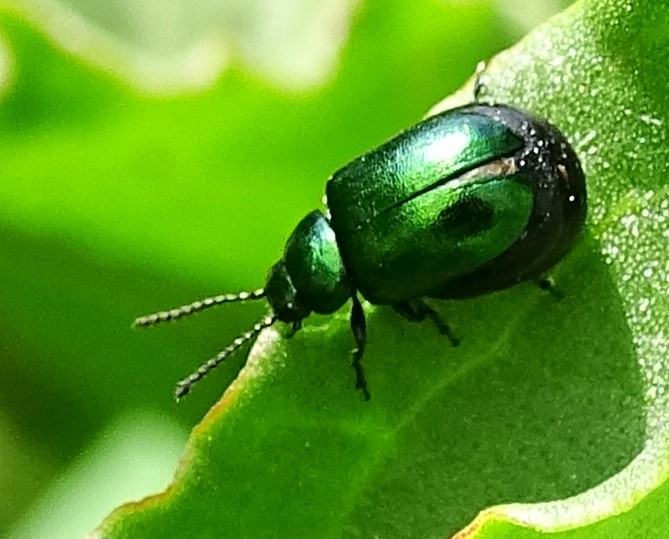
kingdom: Animalia
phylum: Arthropoda
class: Insecta
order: Coleoptera
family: Chrysomelidae
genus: Gastrophysa
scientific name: Gastrophysa cyanea
